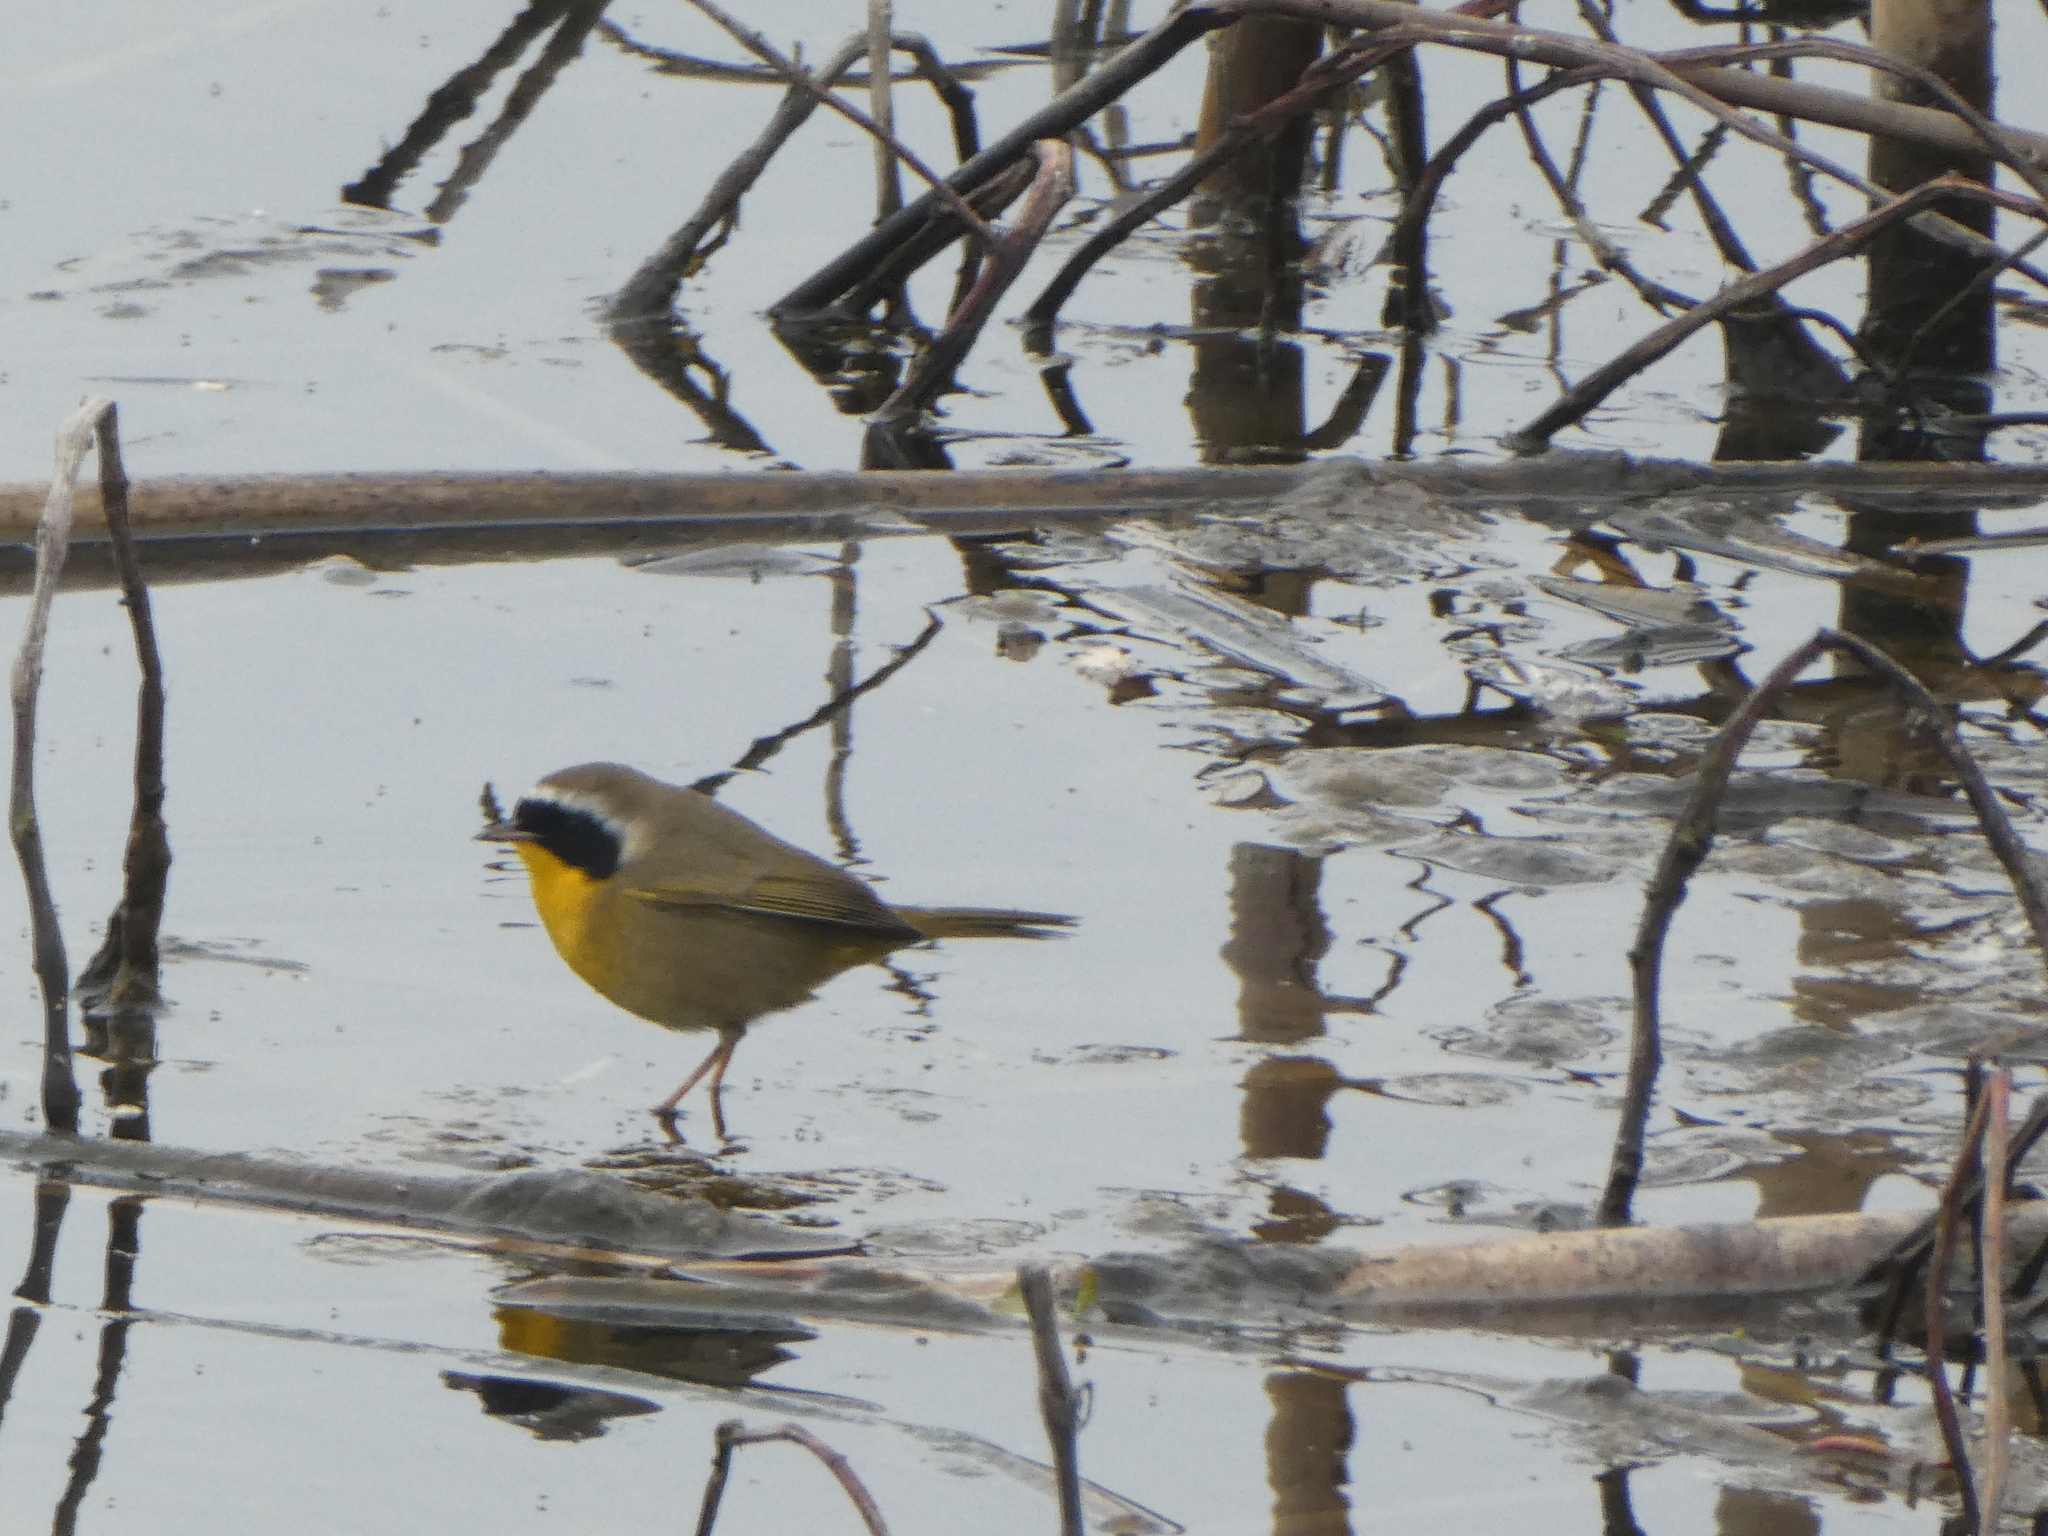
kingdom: Animalia
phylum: Chordata
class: Aves
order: Passeriformes
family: Parulidae
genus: Geothlypis
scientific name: Geothlypis trichas
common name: Common yellowthroat
